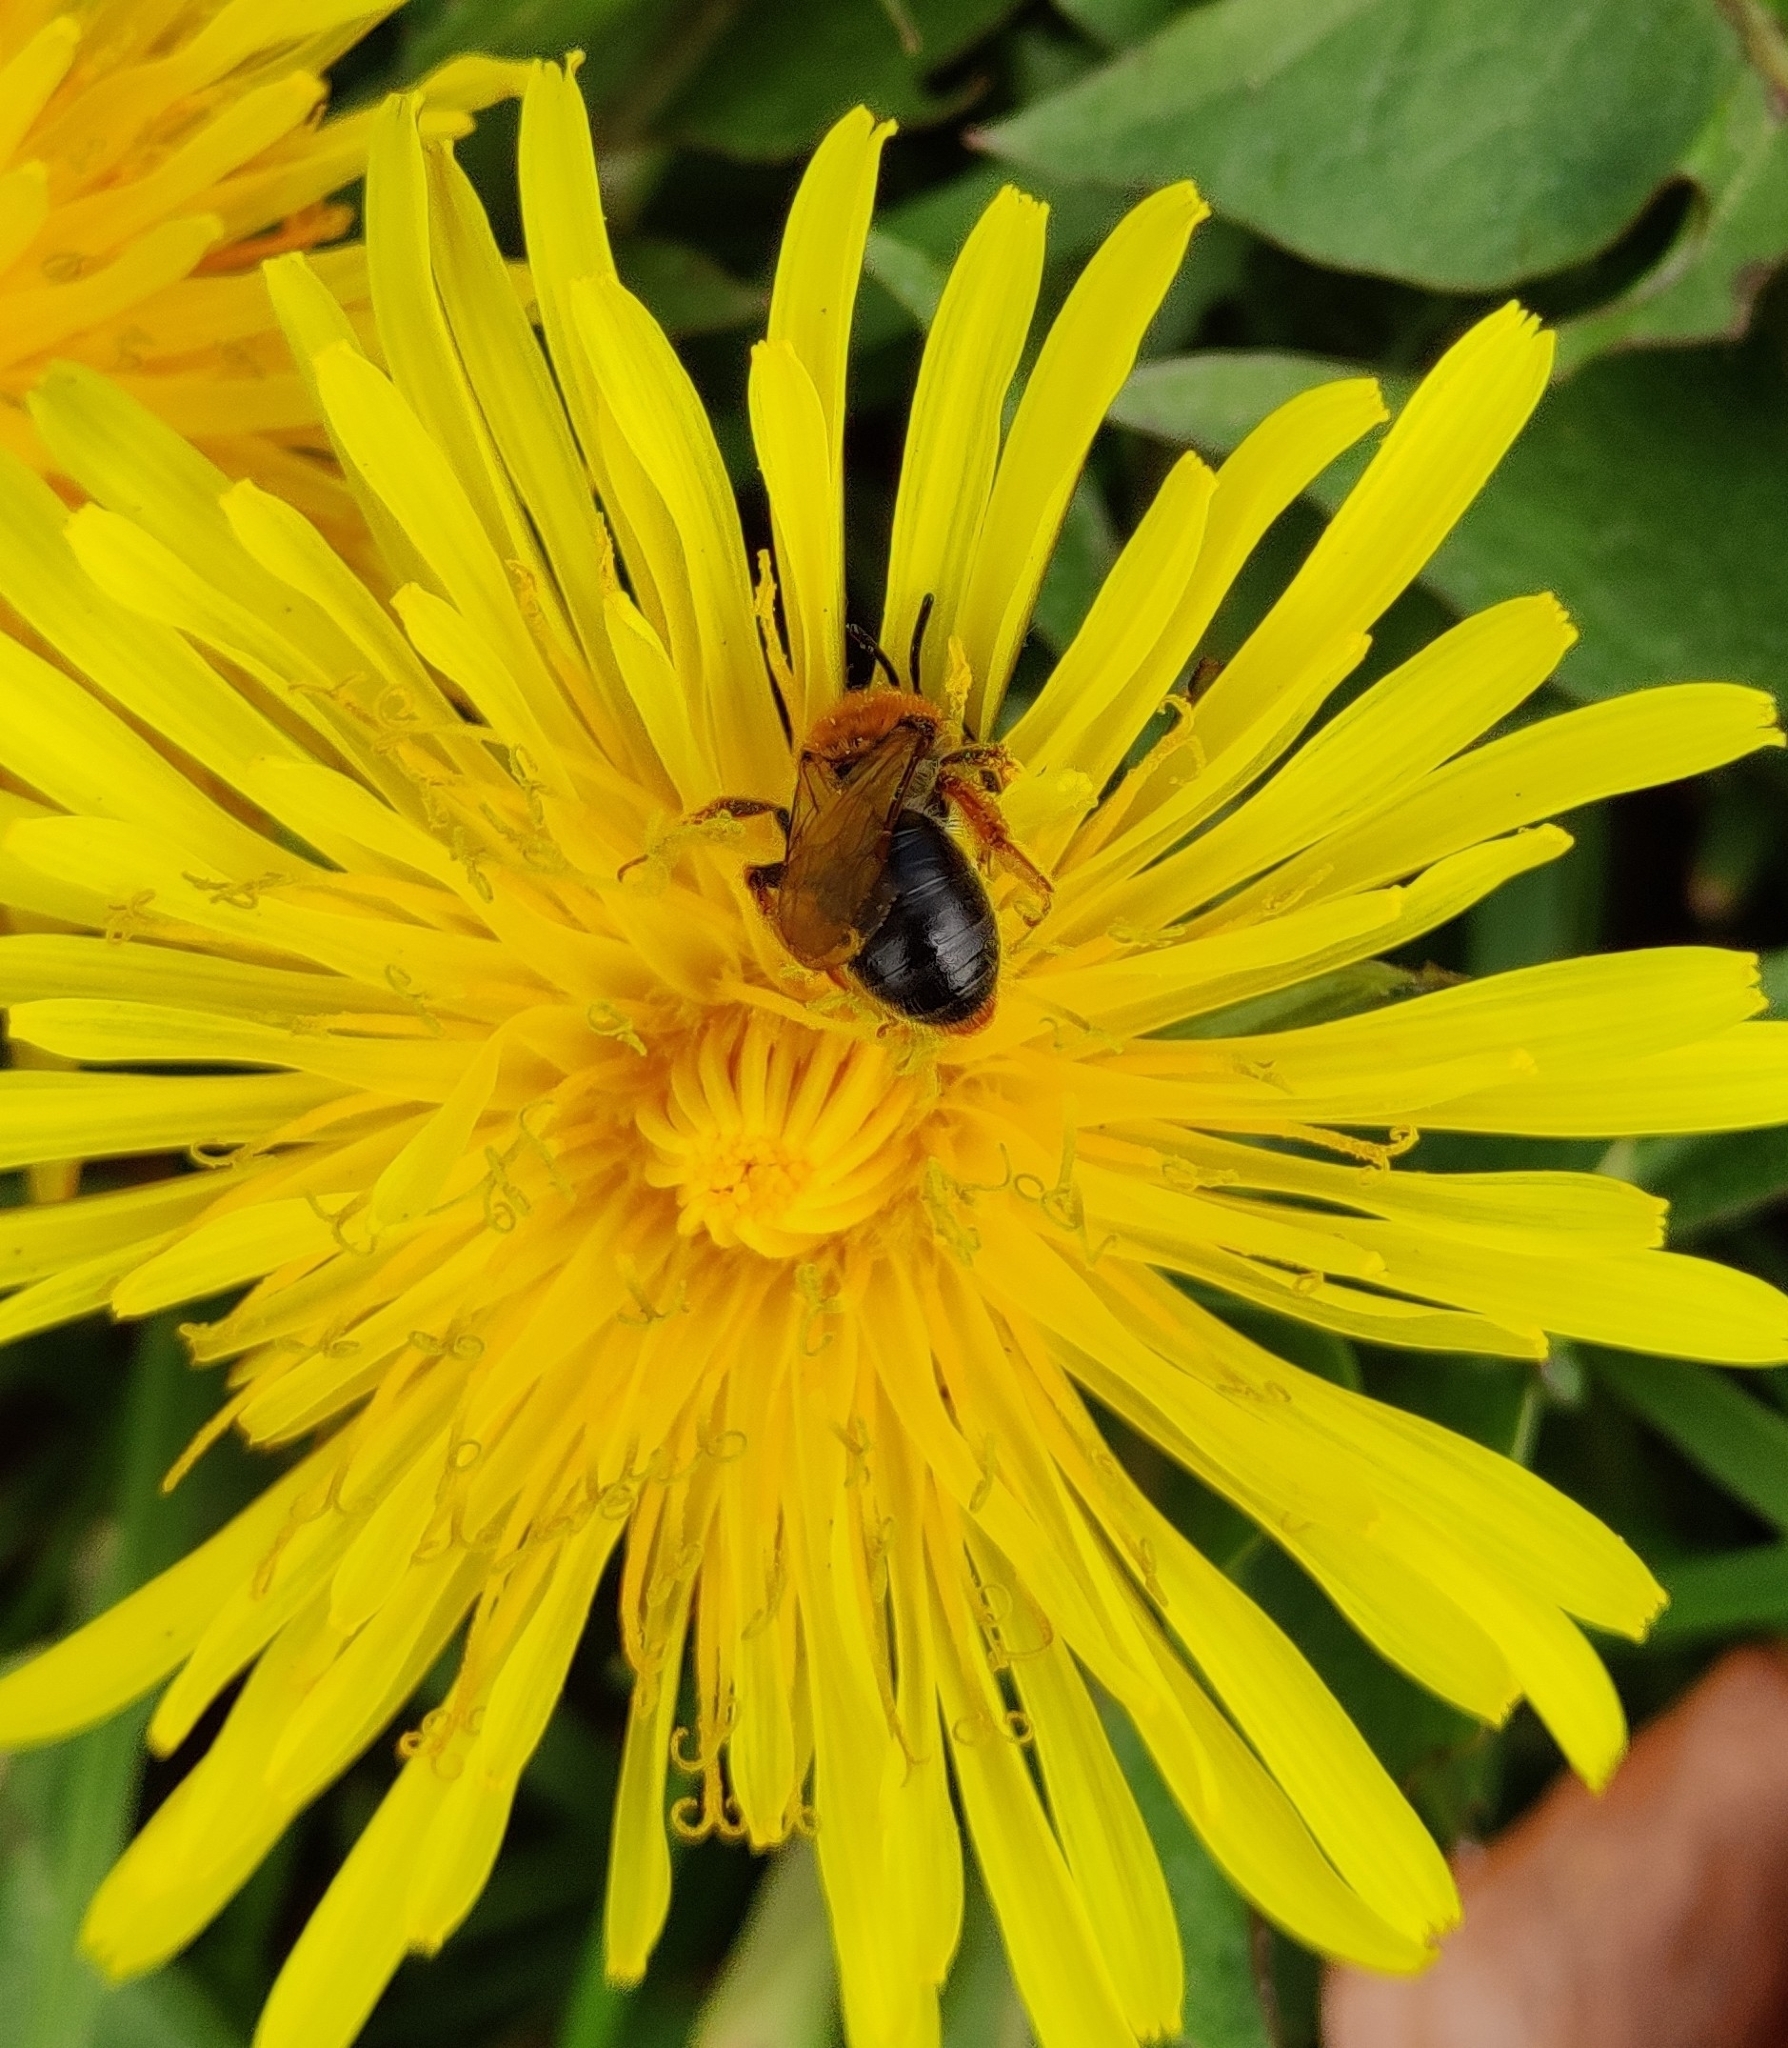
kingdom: Animalia
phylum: Arthropoda
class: Insecta
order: Hymenoptera
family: Andrenidae
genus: Andrena
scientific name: Andrena haemorrhoa
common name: Early mining bee
